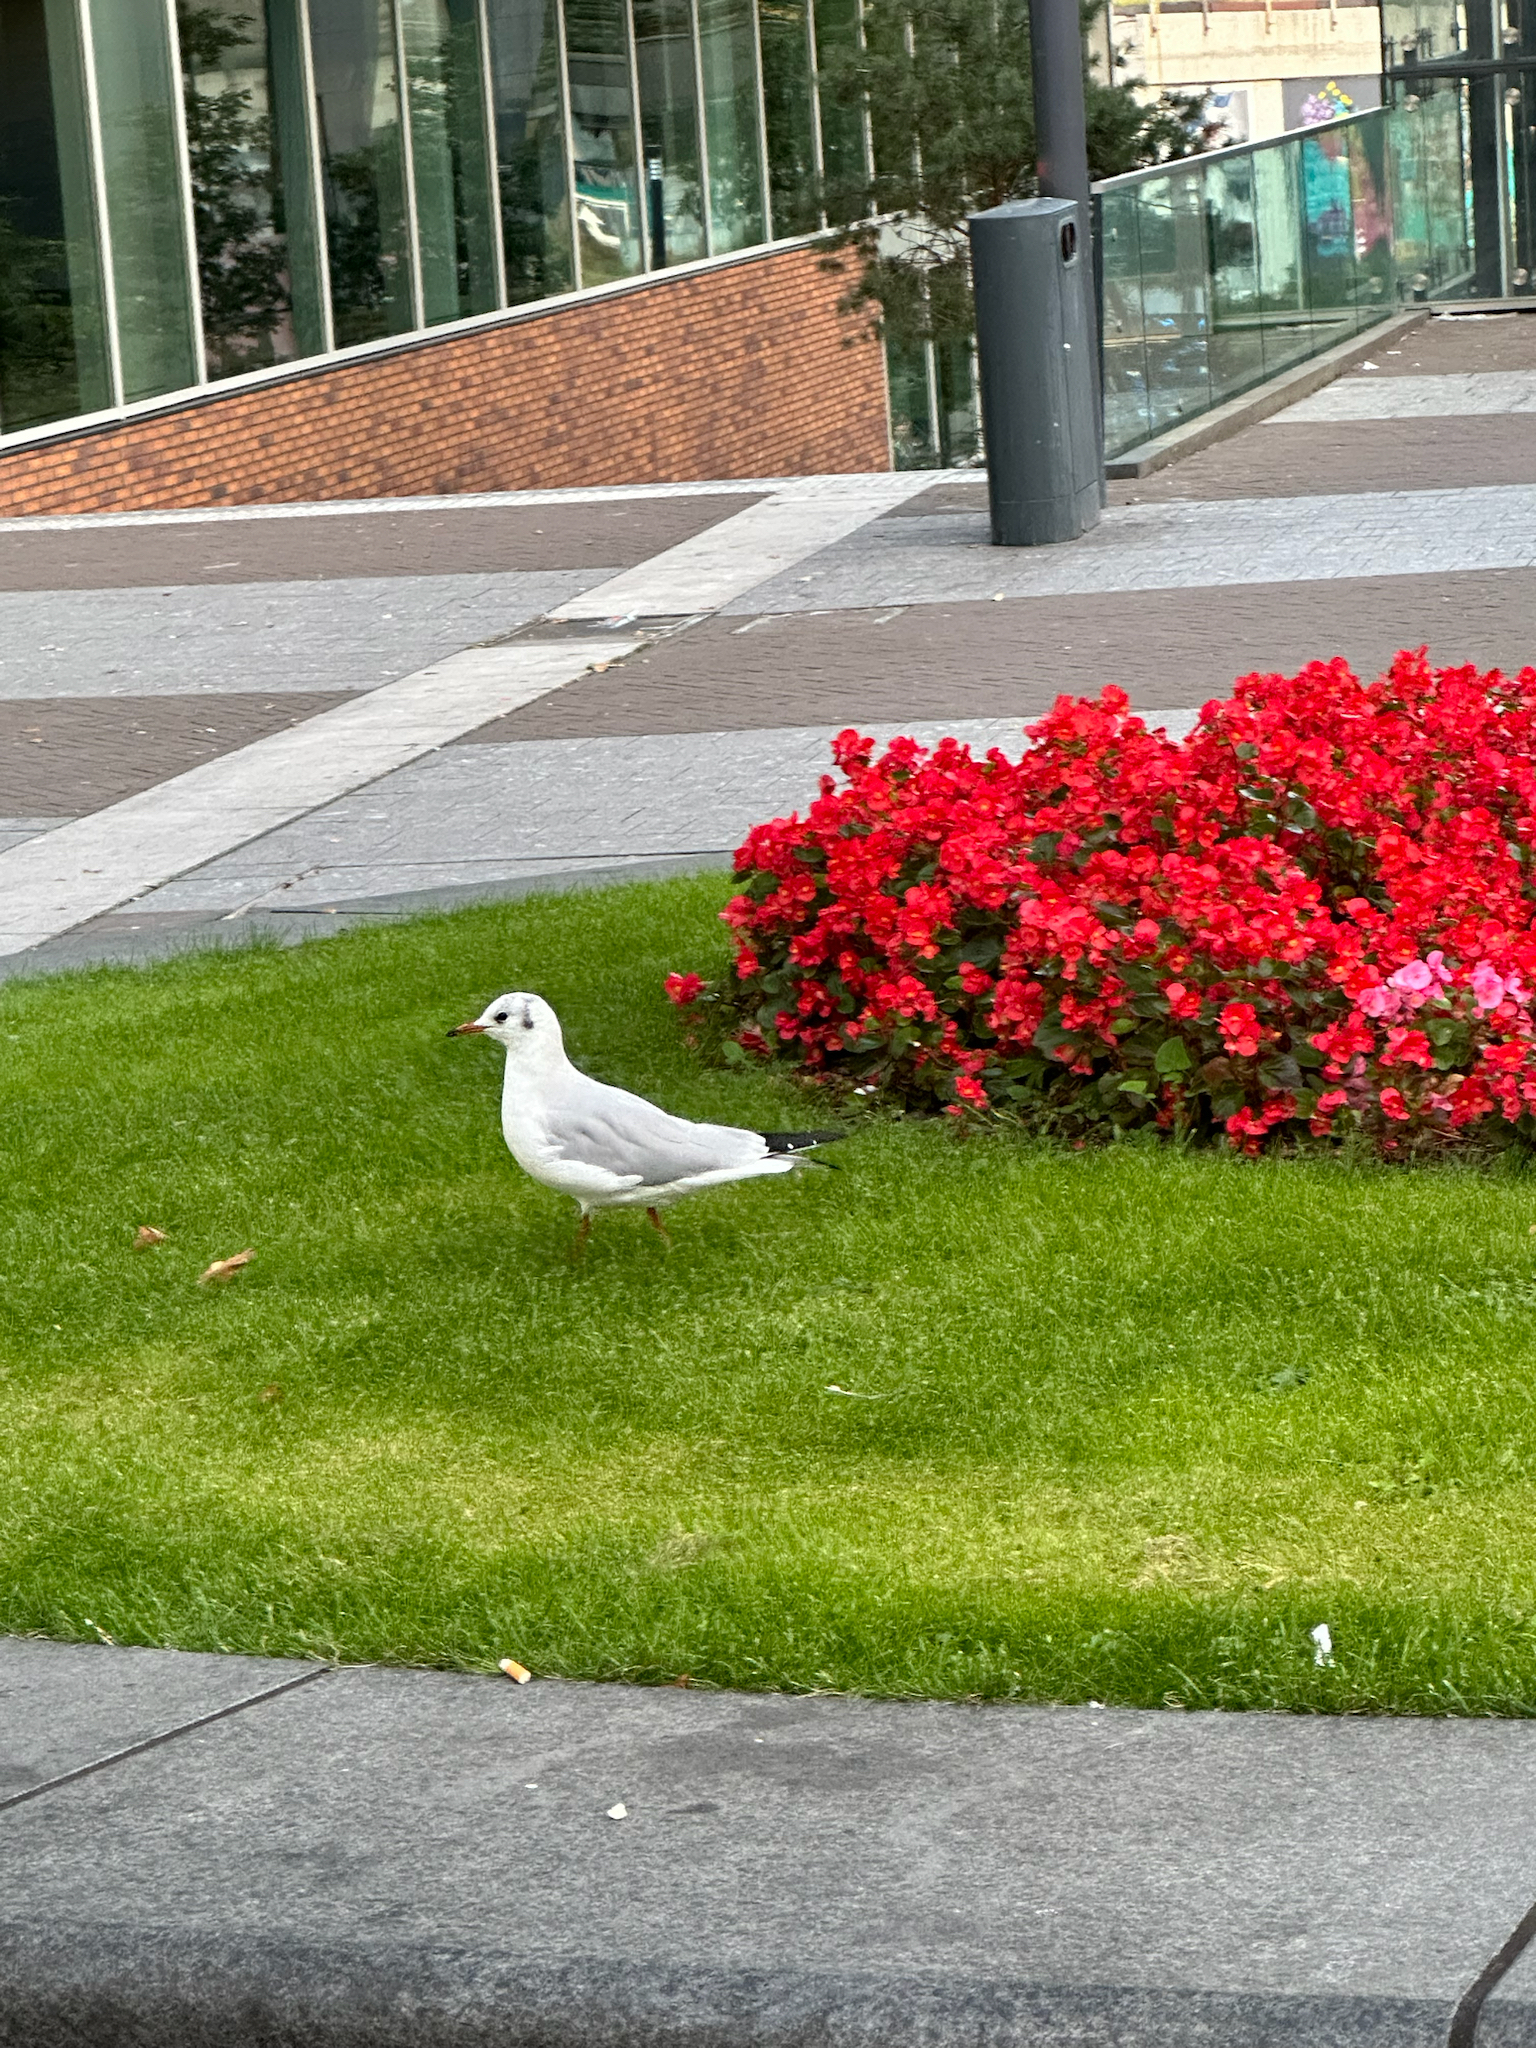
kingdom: Animalia
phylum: Chordata
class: Aves
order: Charadriiformes
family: Laridae
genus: Chroicocephalus
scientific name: Chroicocephalus ridibundus
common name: Black-headed gull
